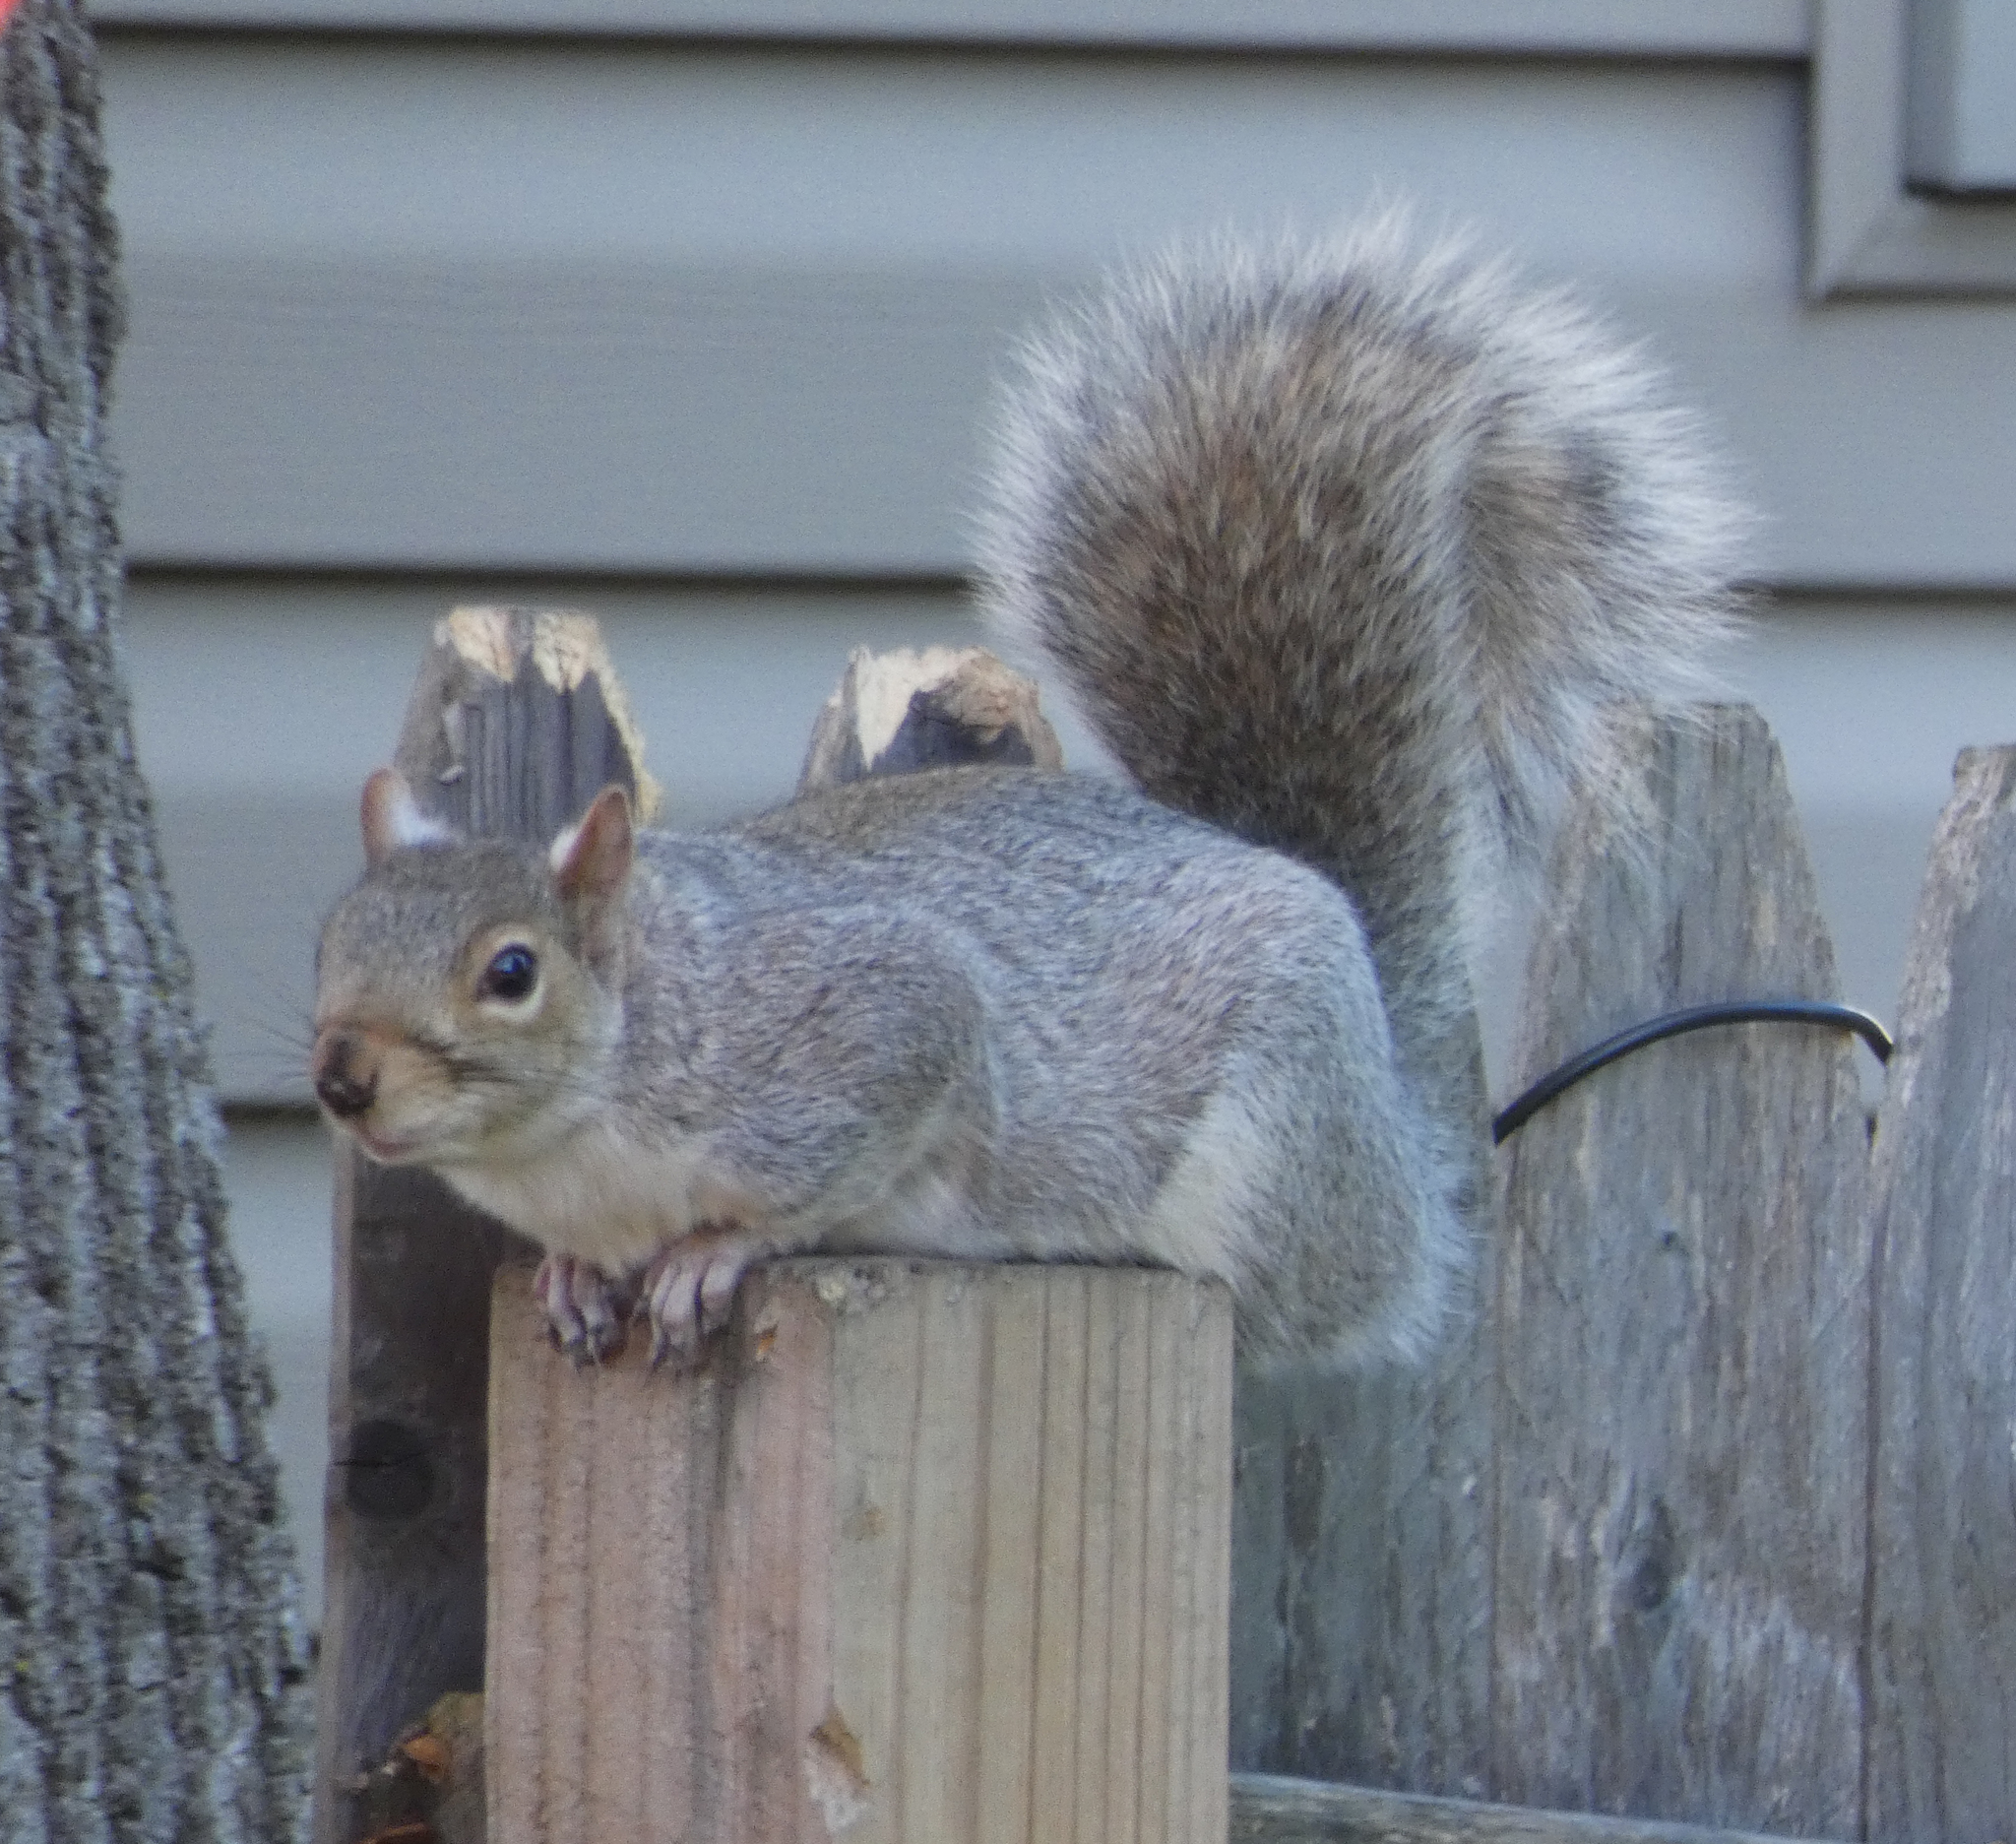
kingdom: Animalia
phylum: Chordata
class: Mammalia
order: Rodentia
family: Sciuridae
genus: Sciurus
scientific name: Sciurus carolinensis
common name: Eastern gray squirrel
